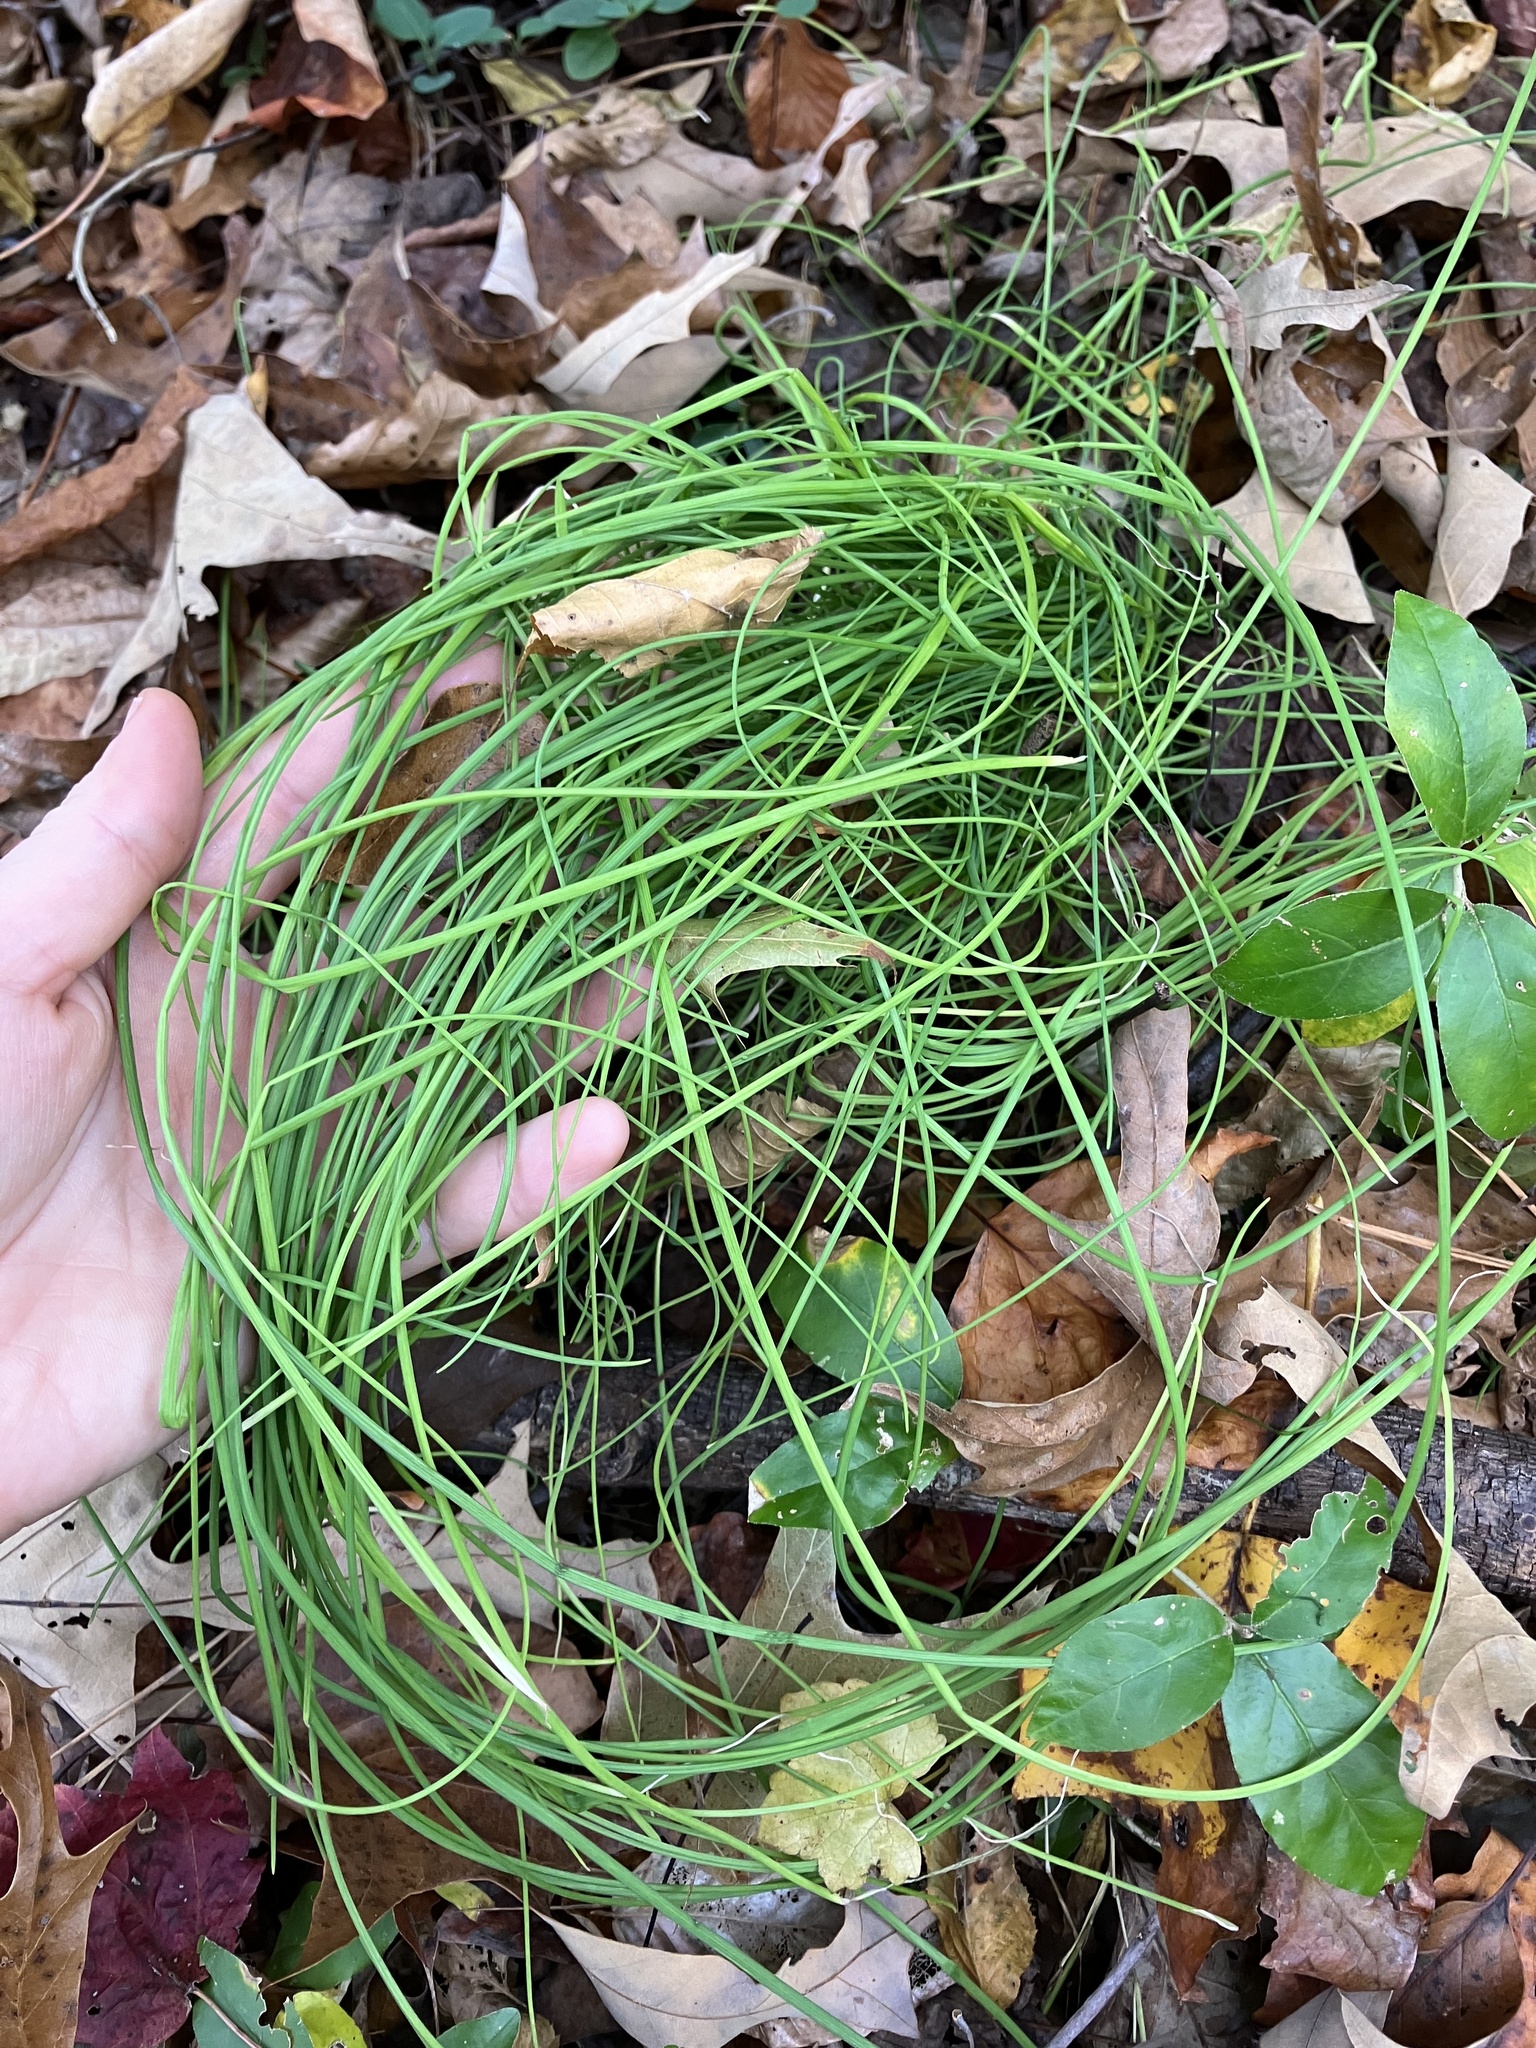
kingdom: Plantae
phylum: Tracheophyta
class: Liliopsida
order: Asparagales
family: Amaryllidaceae
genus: Allium
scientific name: Allium vineale
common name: Crow garlic
